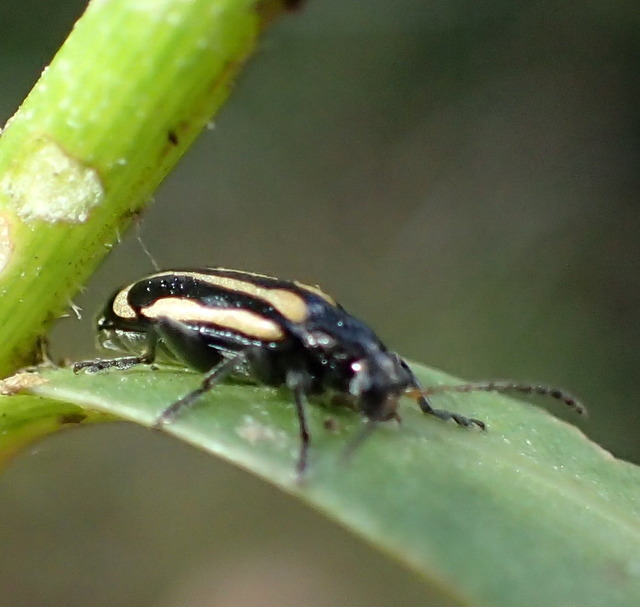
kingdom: Animalia
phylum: Arthropoda
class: Insecta
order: Coleoptera
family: Chrysomelidae
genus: Agasicles
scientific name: Agasicles hygrophila
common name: Alligatorweed flea beetle
